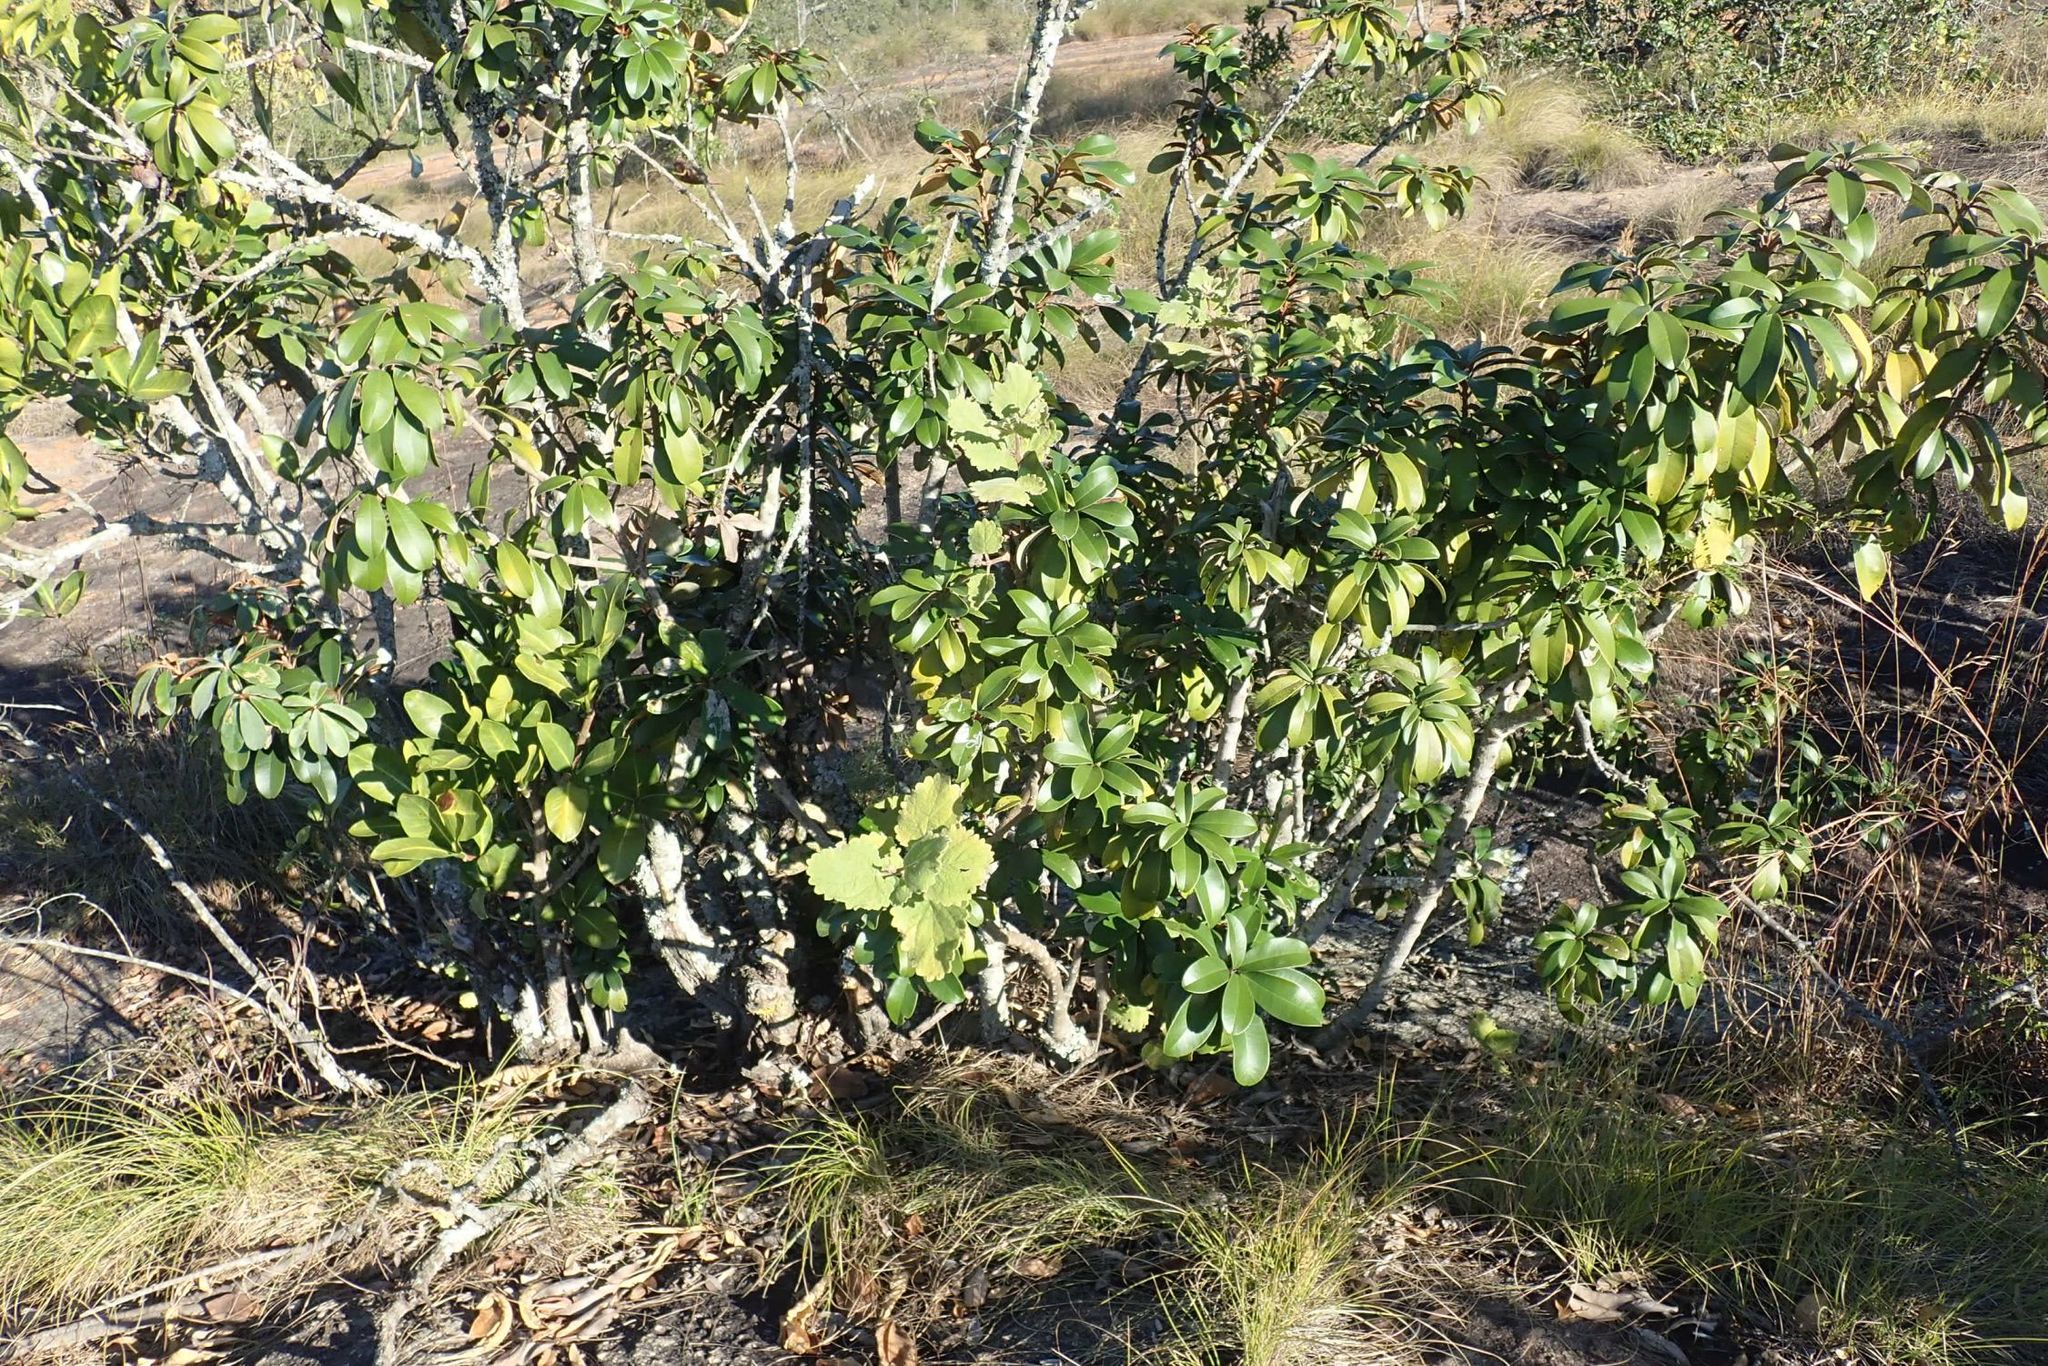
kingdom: Plantae
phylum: Tracheophyta
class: Magnoliopsida
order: Ericales
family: Sapotaceae
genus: Englerophytum
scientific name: Englerophytum magalismontanum
